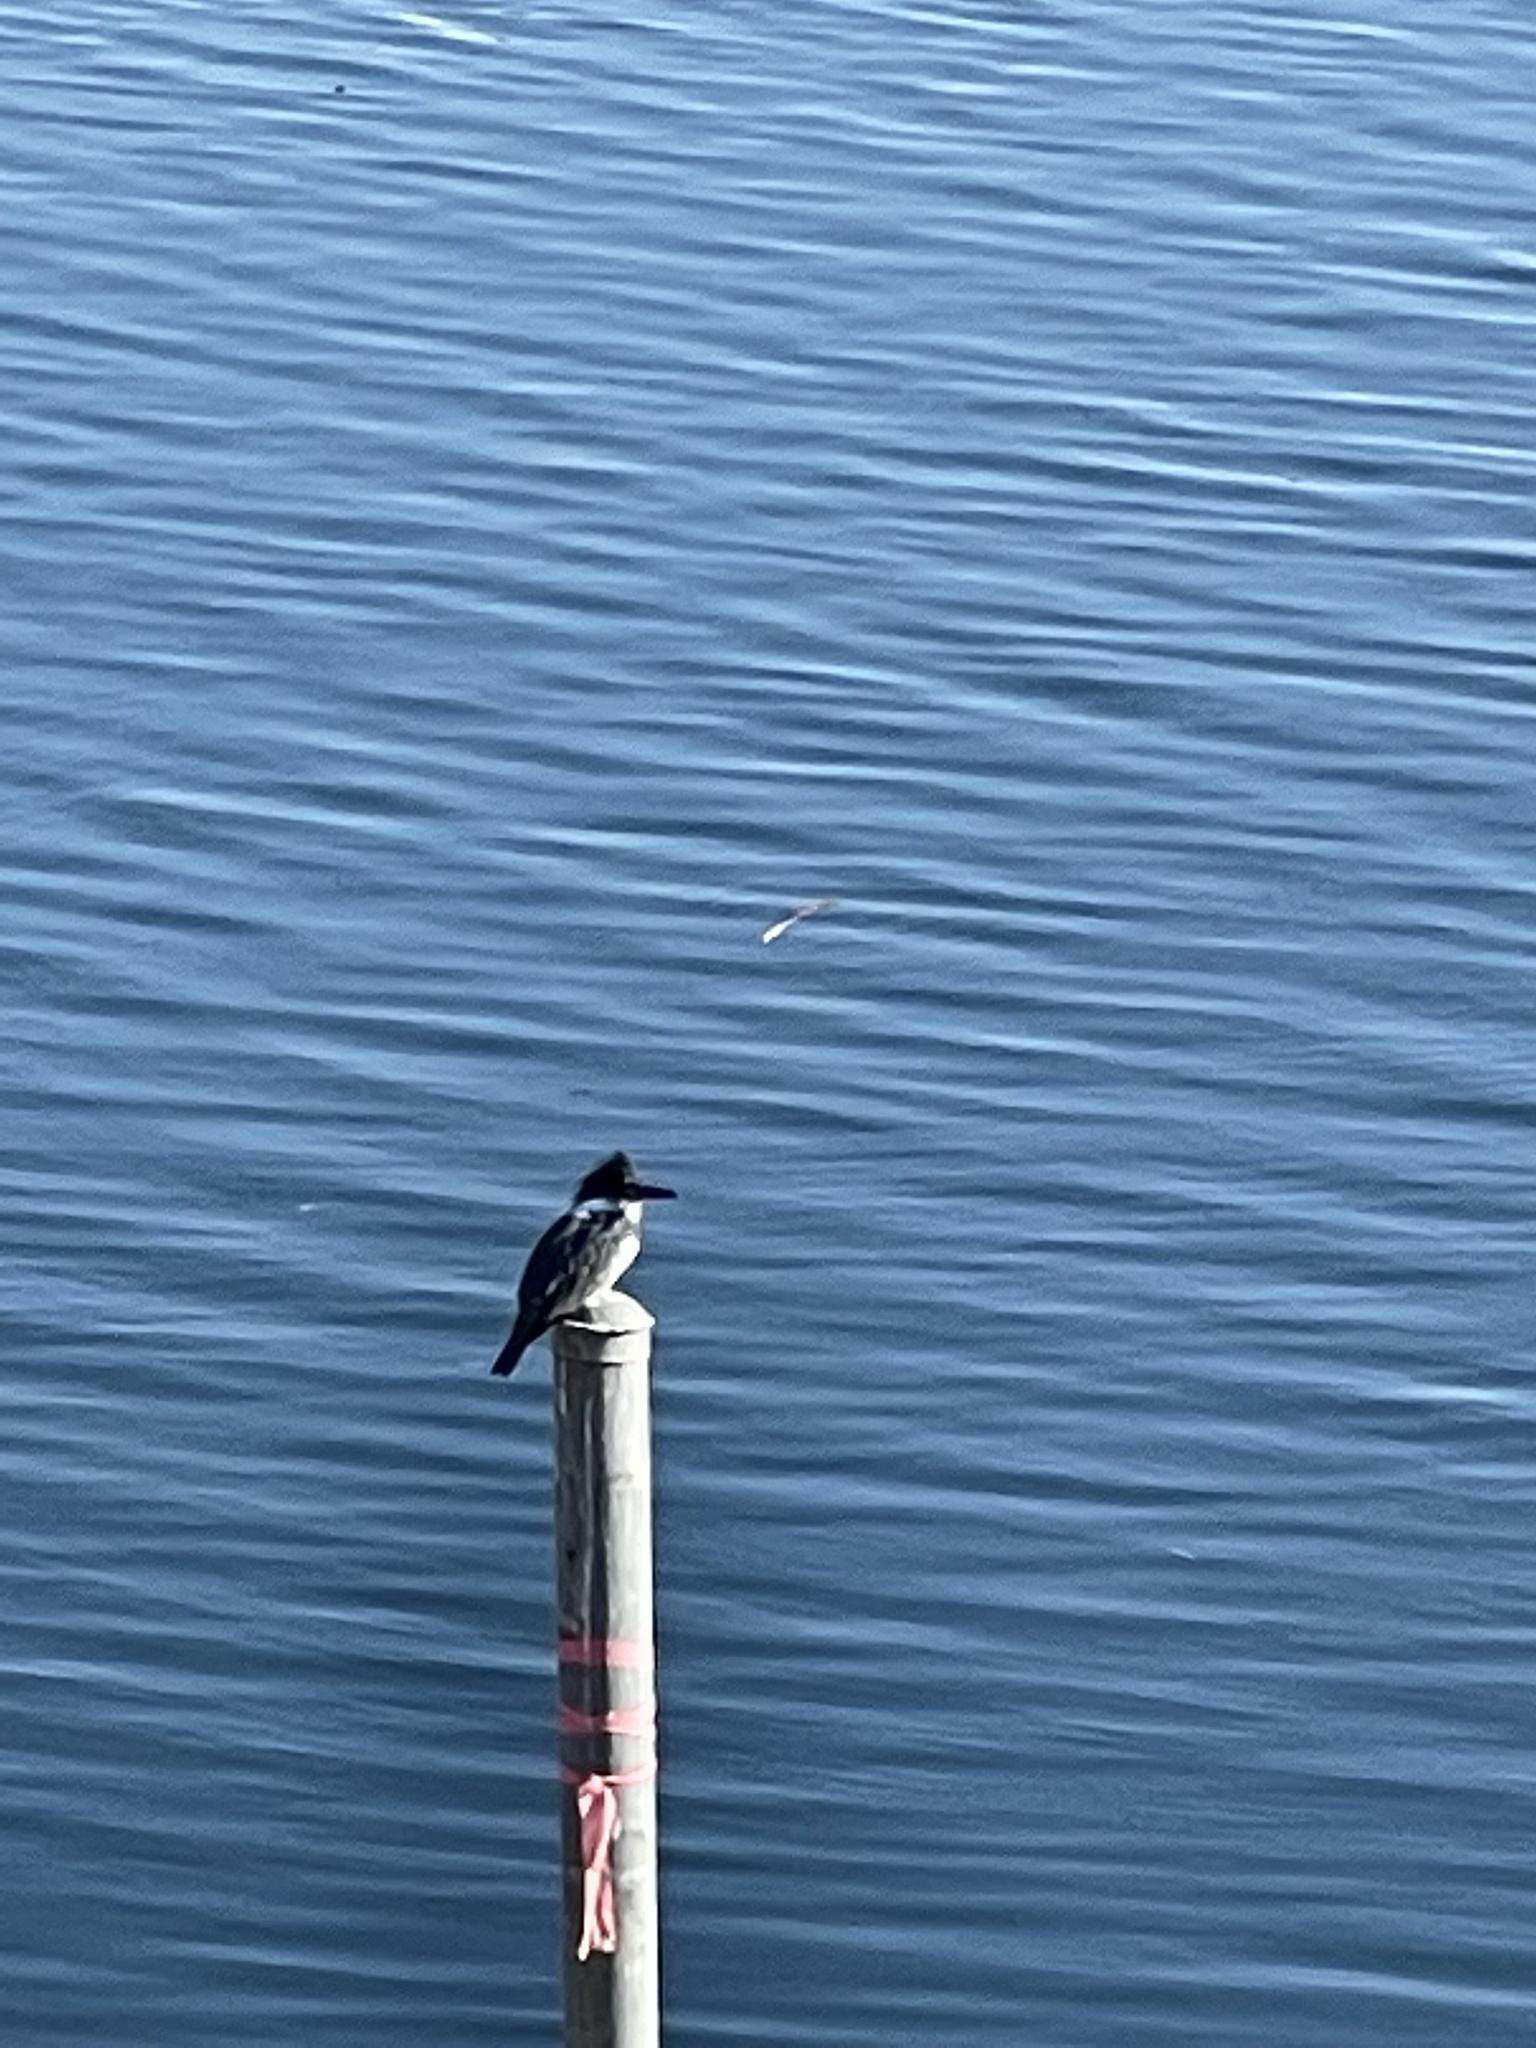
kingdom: Animalia
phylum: Chordata
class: Aves
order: Coraciiformes
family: Alcedinidae
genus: Megaceryle
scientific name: Megaceryle alcyon
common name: Belted kingfisher
